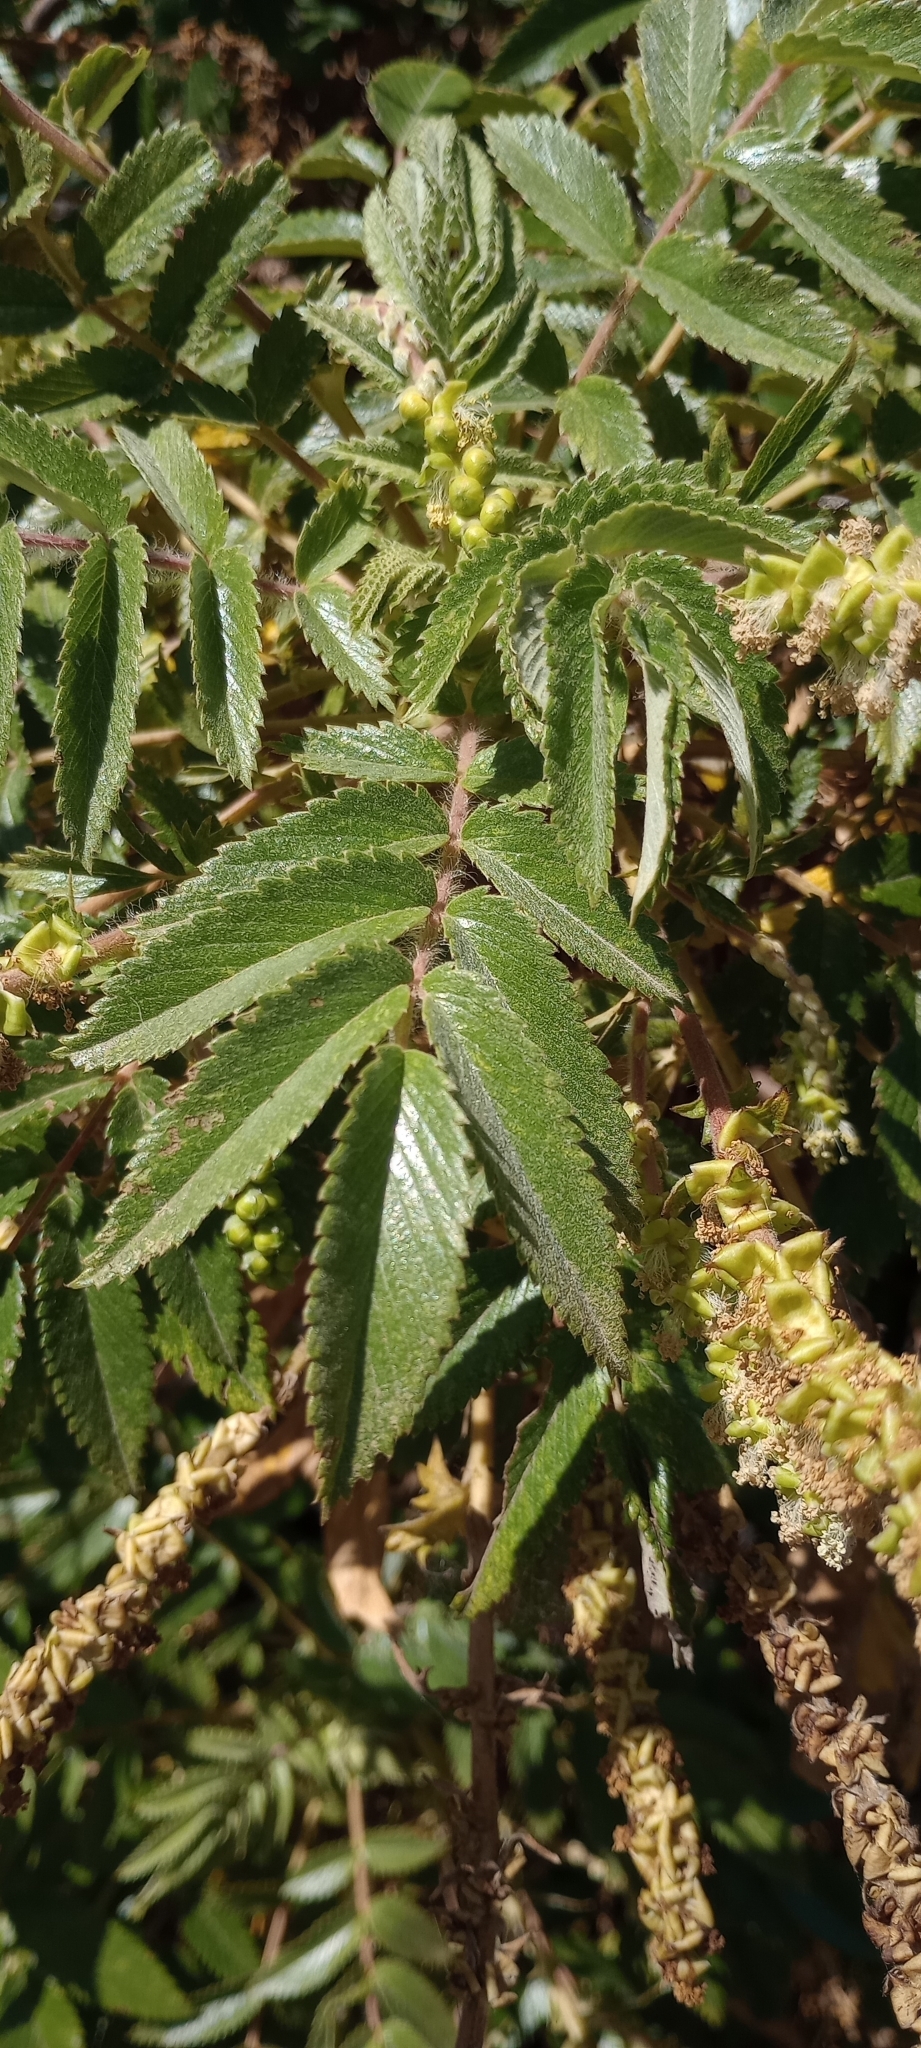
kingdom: Plantae
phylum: Tracheophyta
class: Magnoliopsida
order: Rosales
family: Rosaceae
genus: Bencomia
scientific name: Bencomia caudata
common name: Bencomia
